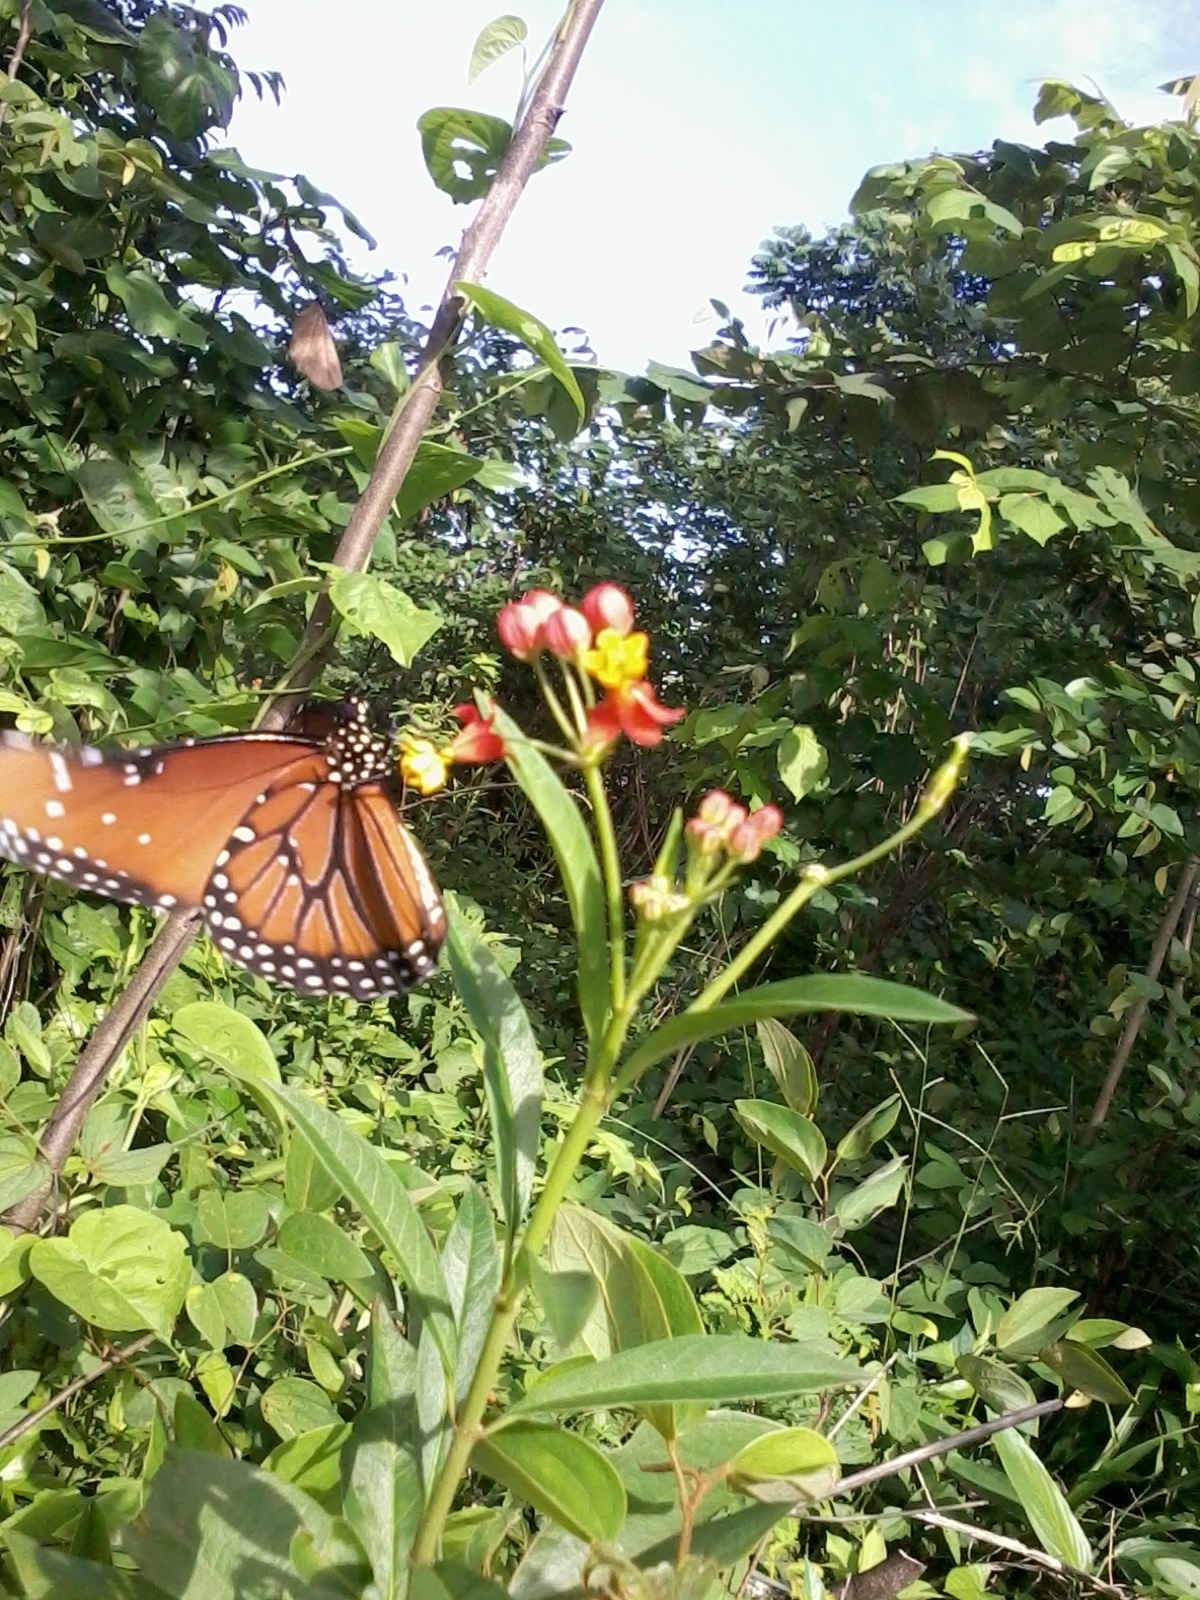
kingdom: Animalia
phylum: Arthropoda
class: Insecta
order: Lepidoptera
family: Nymphalidae
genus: Danaus
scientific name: Danaus gilippus
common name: Queen
